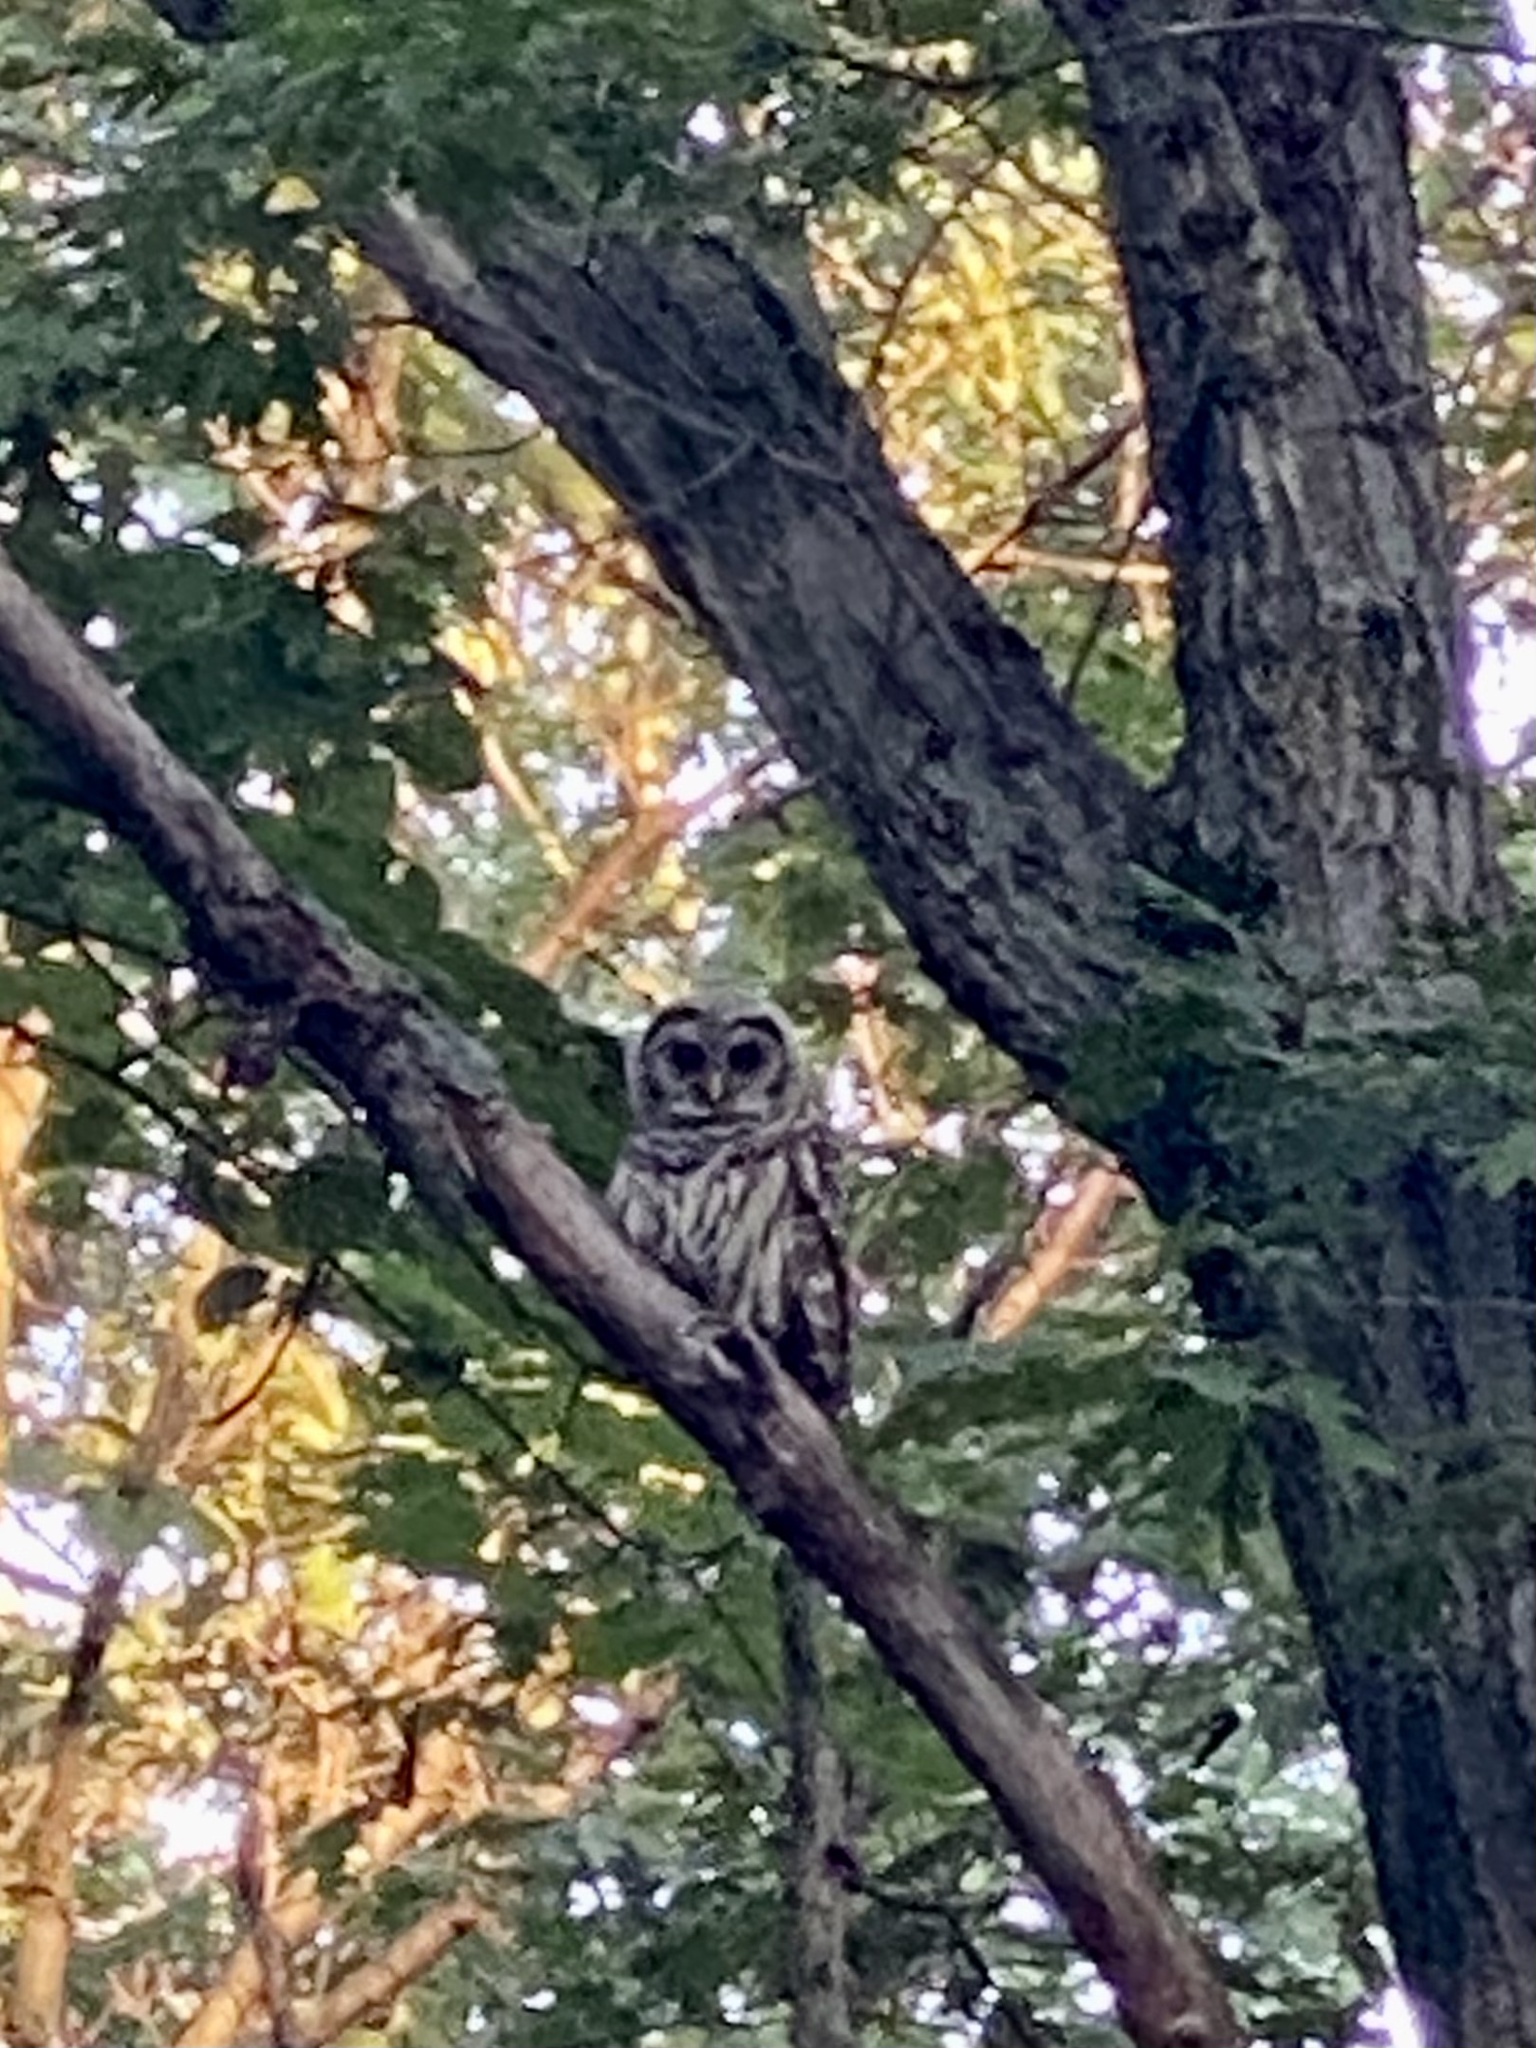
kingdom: Animalia
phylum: Chordata
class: Aves
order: Strigiformes
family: Strigidae
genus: Strix
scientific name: Strix varia
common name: Barred owl
